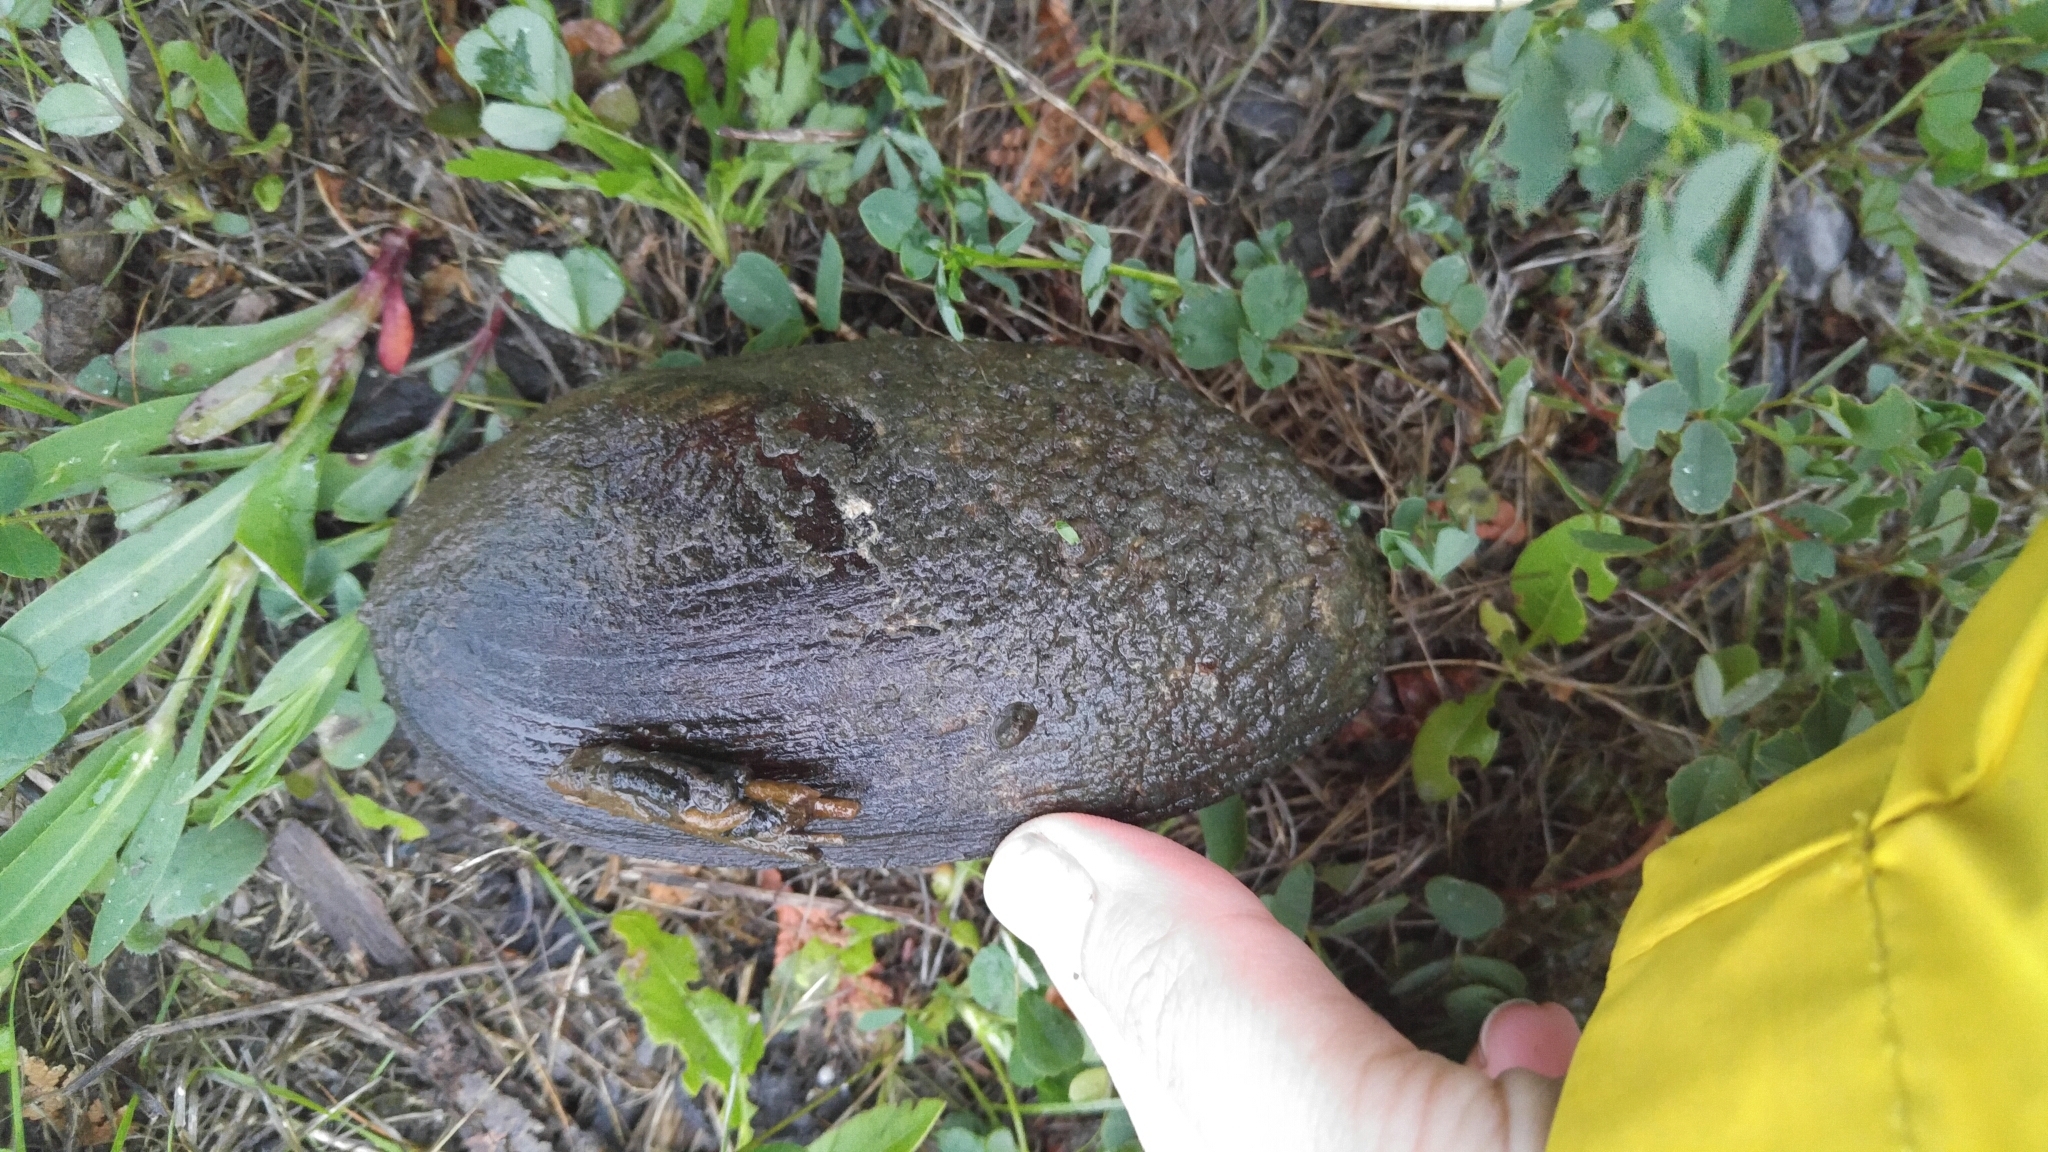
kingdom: Animalia
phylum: Mollusca
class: Bivalvia
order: Unionida
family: Unionidae
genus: Elliptio
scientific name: Elliptio complanata
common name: Eastern elliptio
